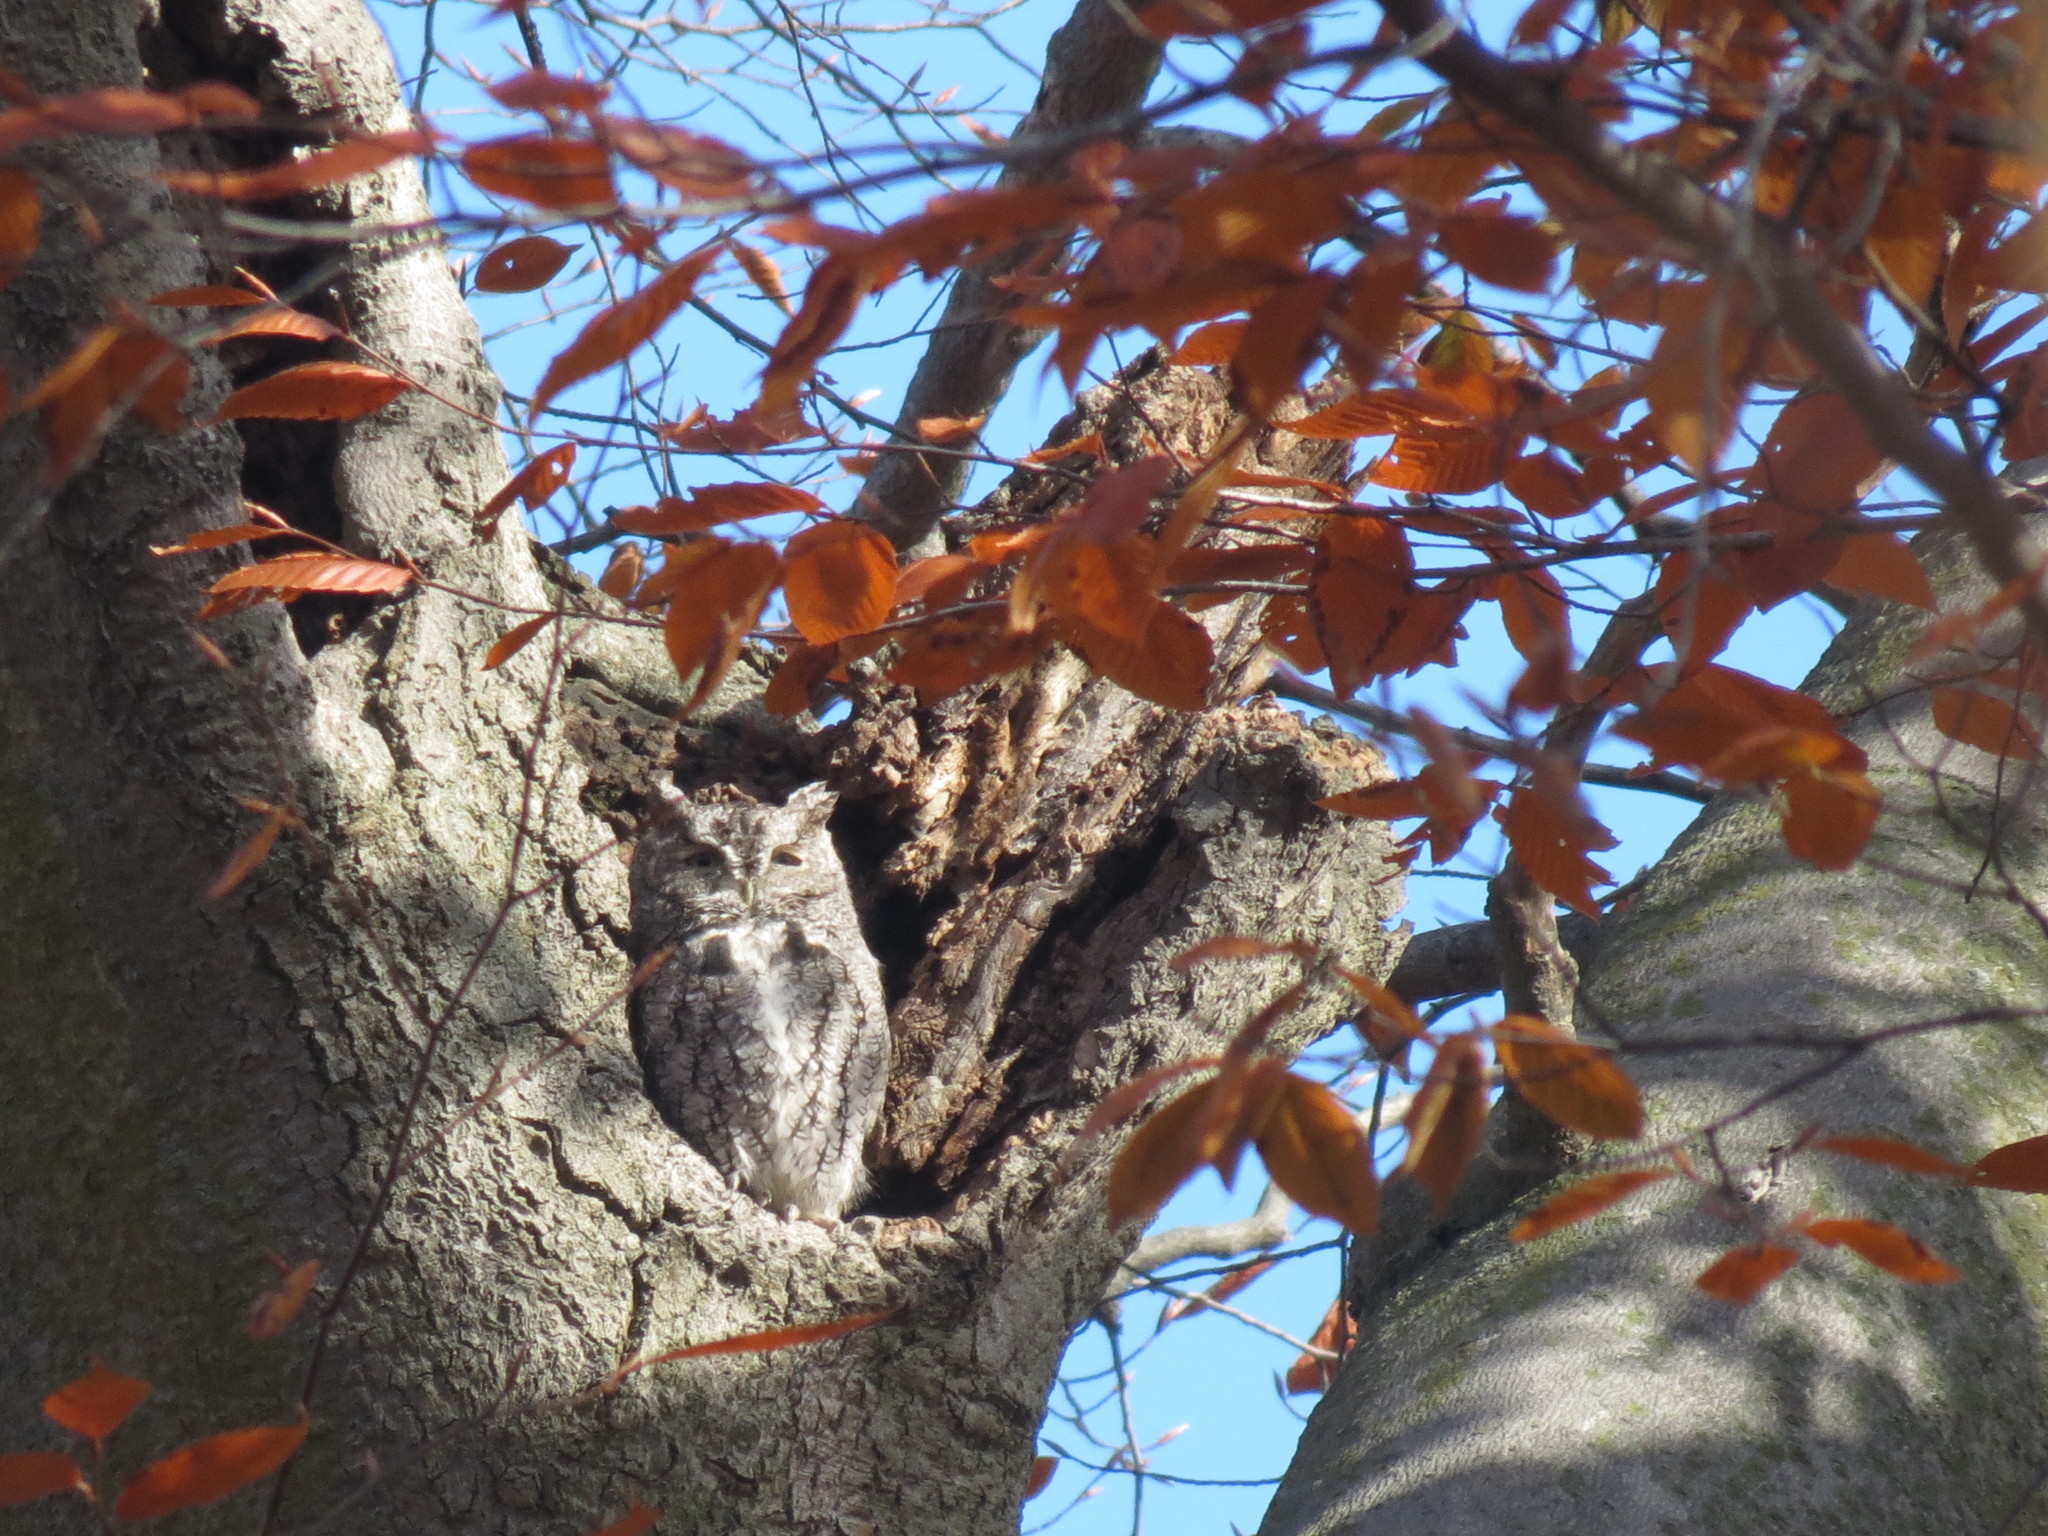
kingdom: Animalia
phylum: Chordata
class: Aves
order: Strigiformes
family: Strigidae
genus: Megascops
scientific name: Megascops asio
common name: Eastern screech-owl
